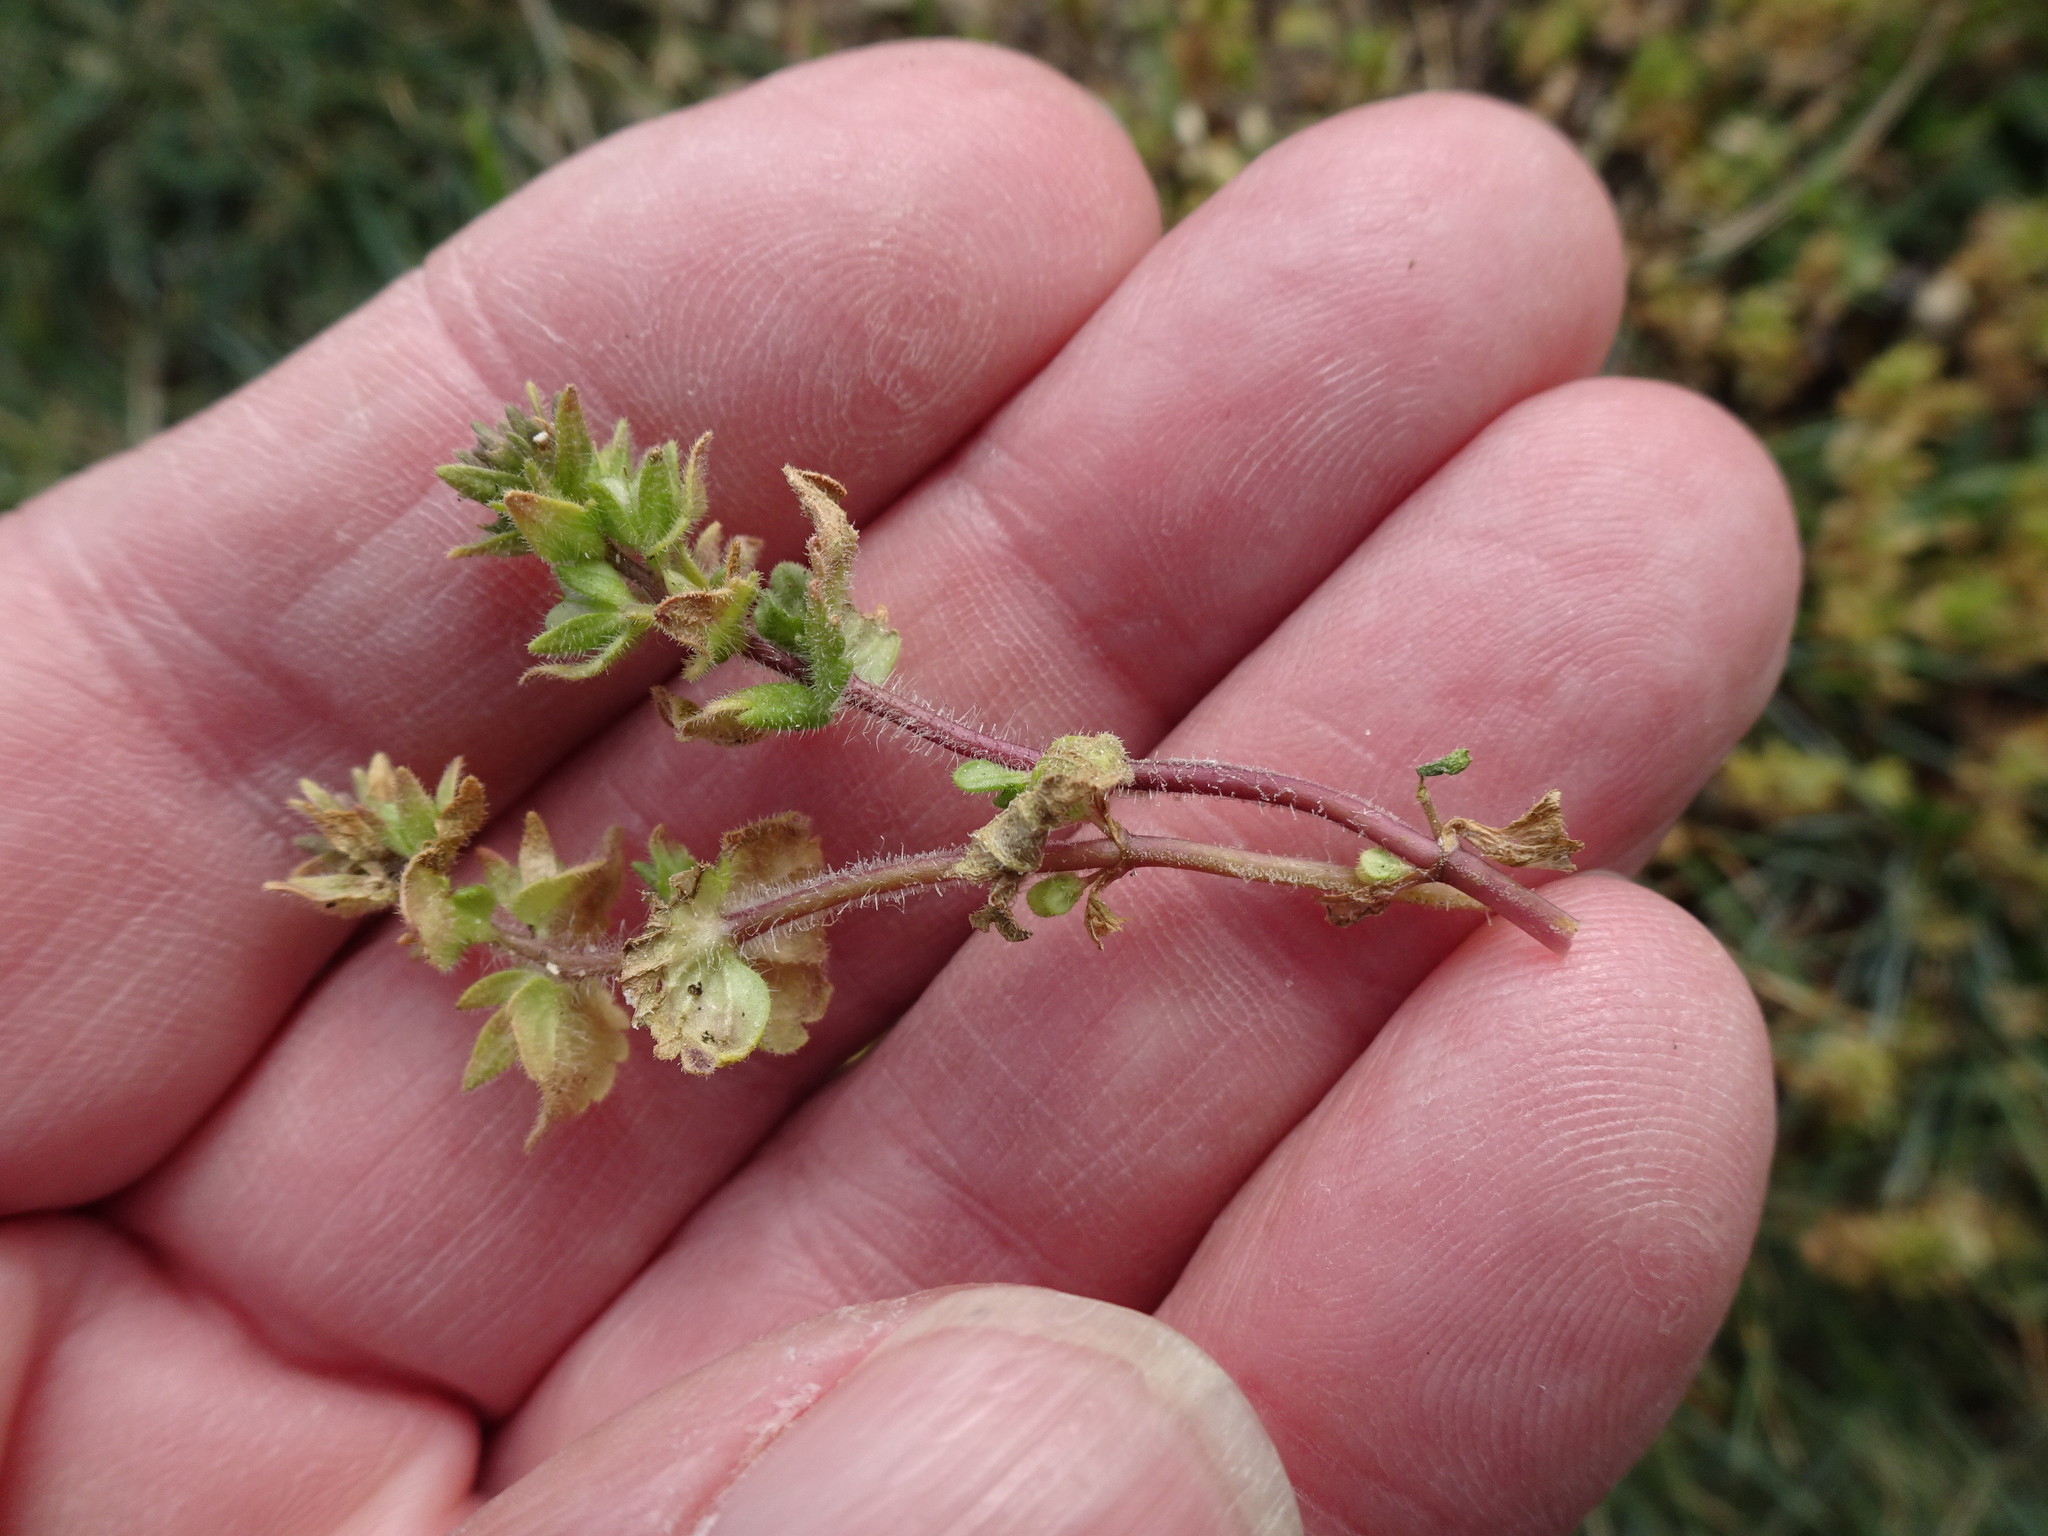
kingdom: Plantae
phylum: Tracheophyta
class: Magnoliopsida
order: Lamiales
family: Plantaginaceae
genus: Veronica
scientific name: Veronica arvensis
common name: Corn speedwell
